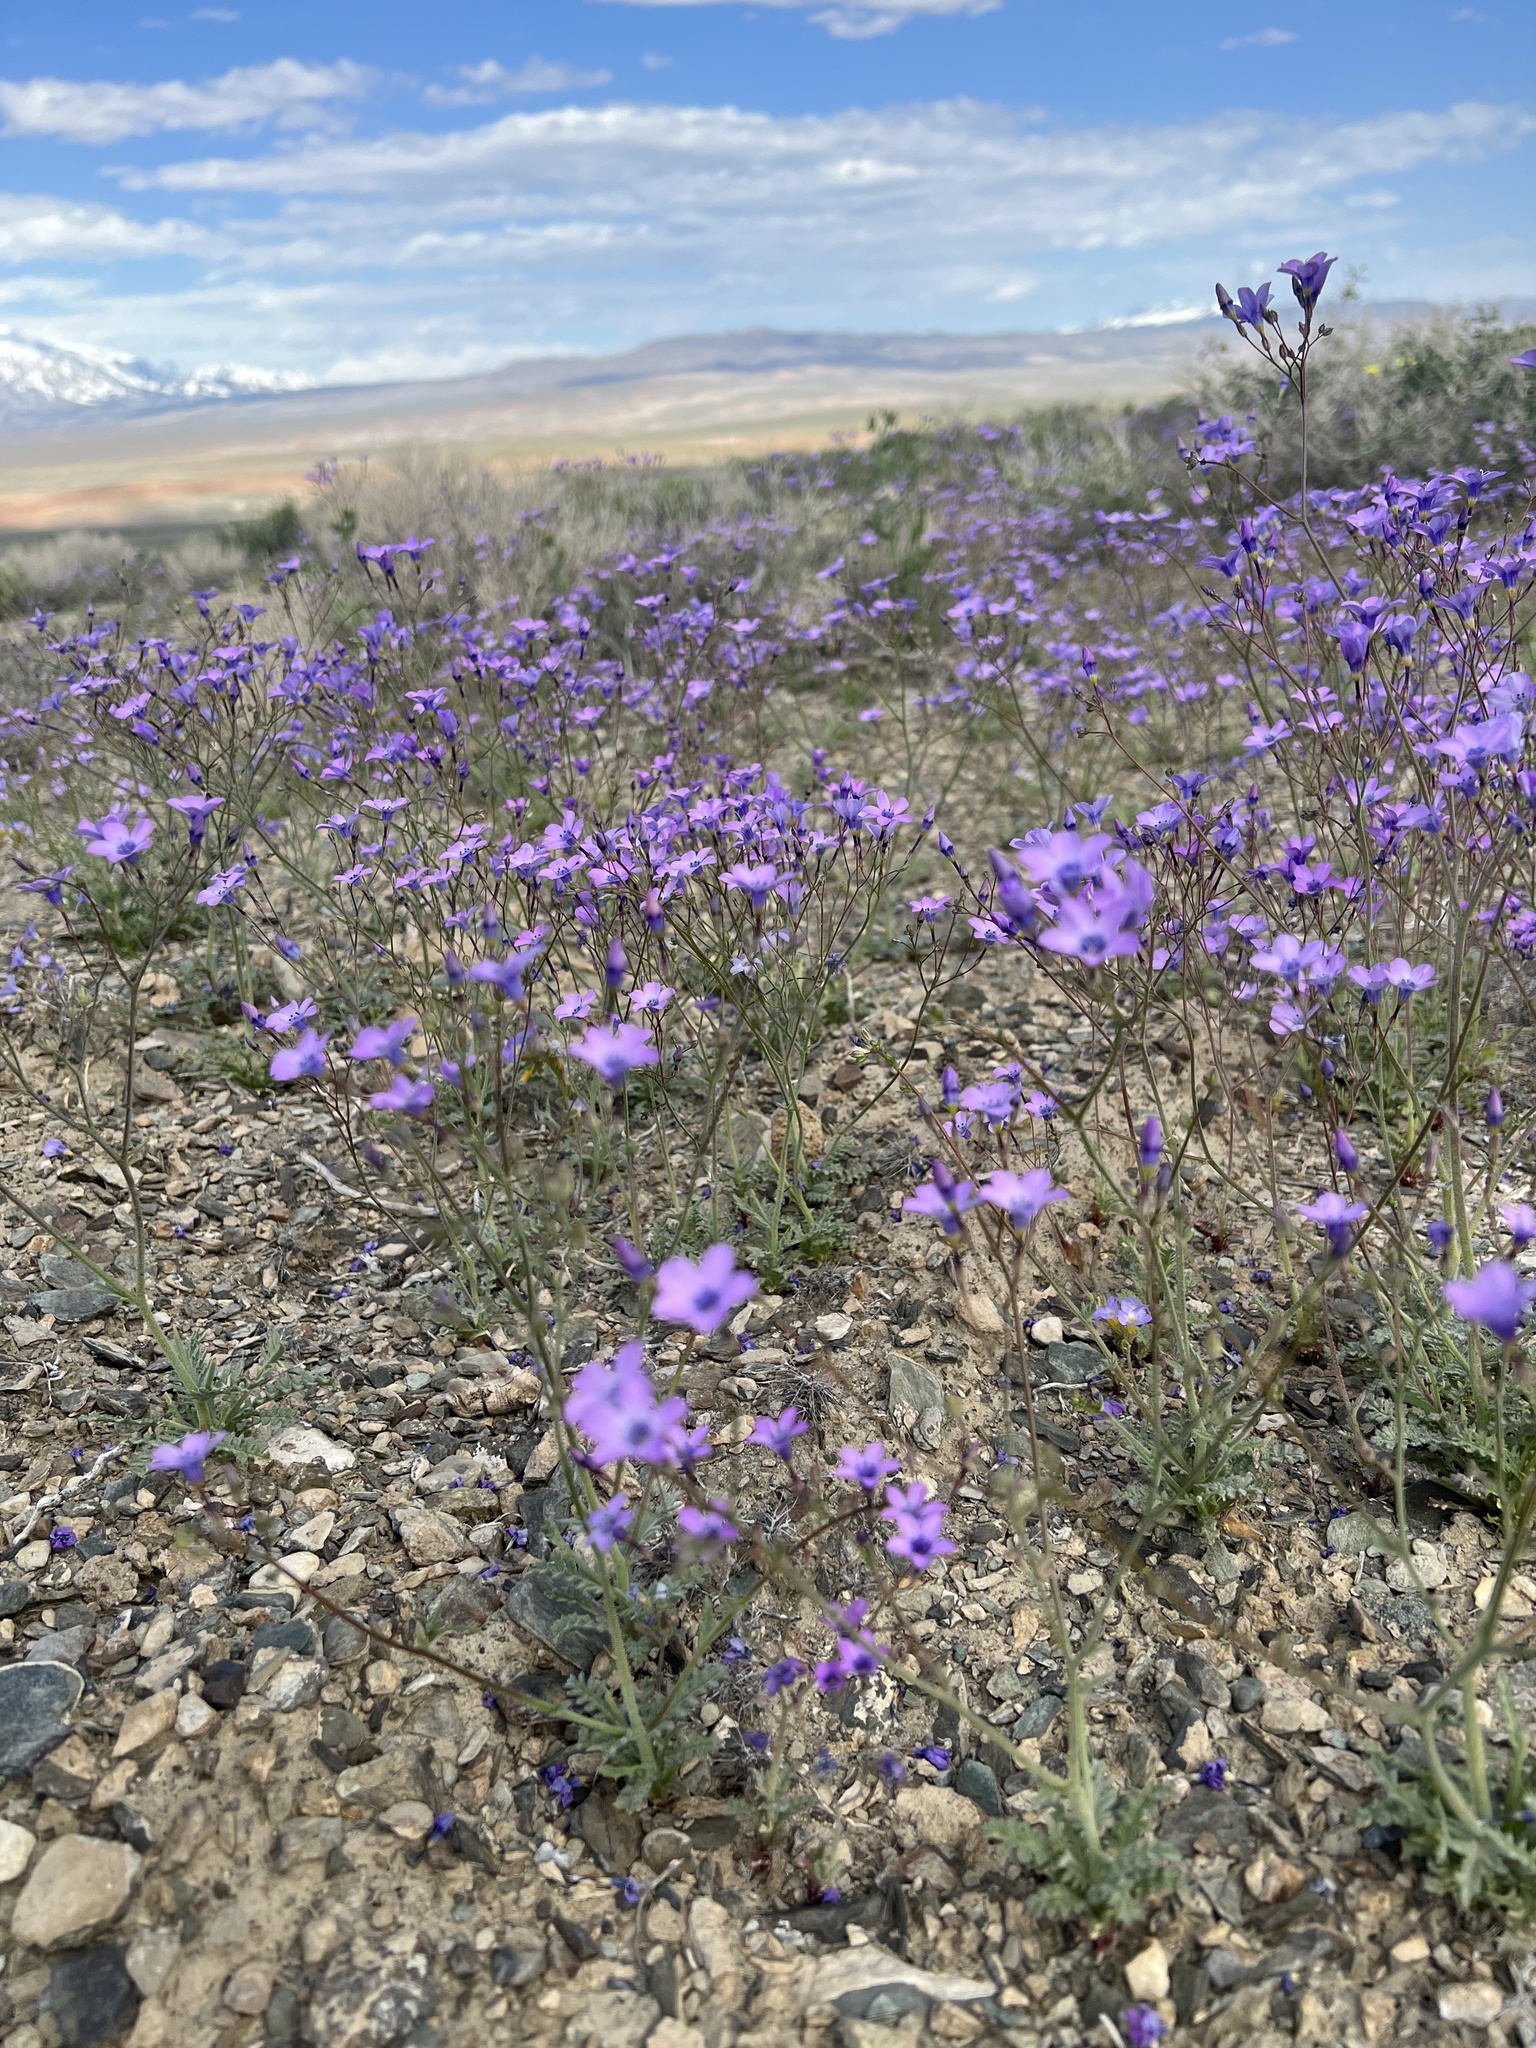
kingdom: Plantae
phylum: Tracheophyta
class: Magnoliopsida
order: Ericales
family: Polemoniaceae
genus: Gilia
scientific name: Gilia cana
